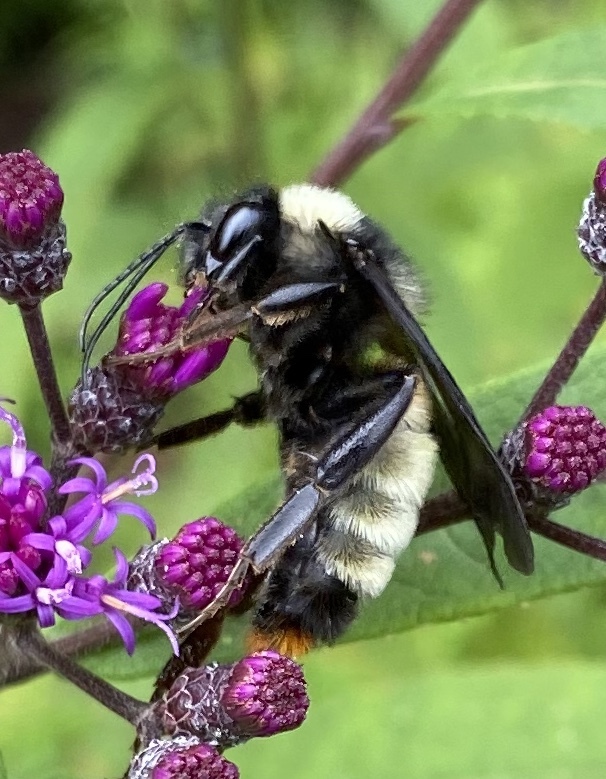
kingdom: Animalia
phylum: Arthropoda
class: Insecta
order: Hymenoptera
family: Apidae
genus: Bombus
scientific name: Bombus pensylvanicus
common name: Bumble bee
